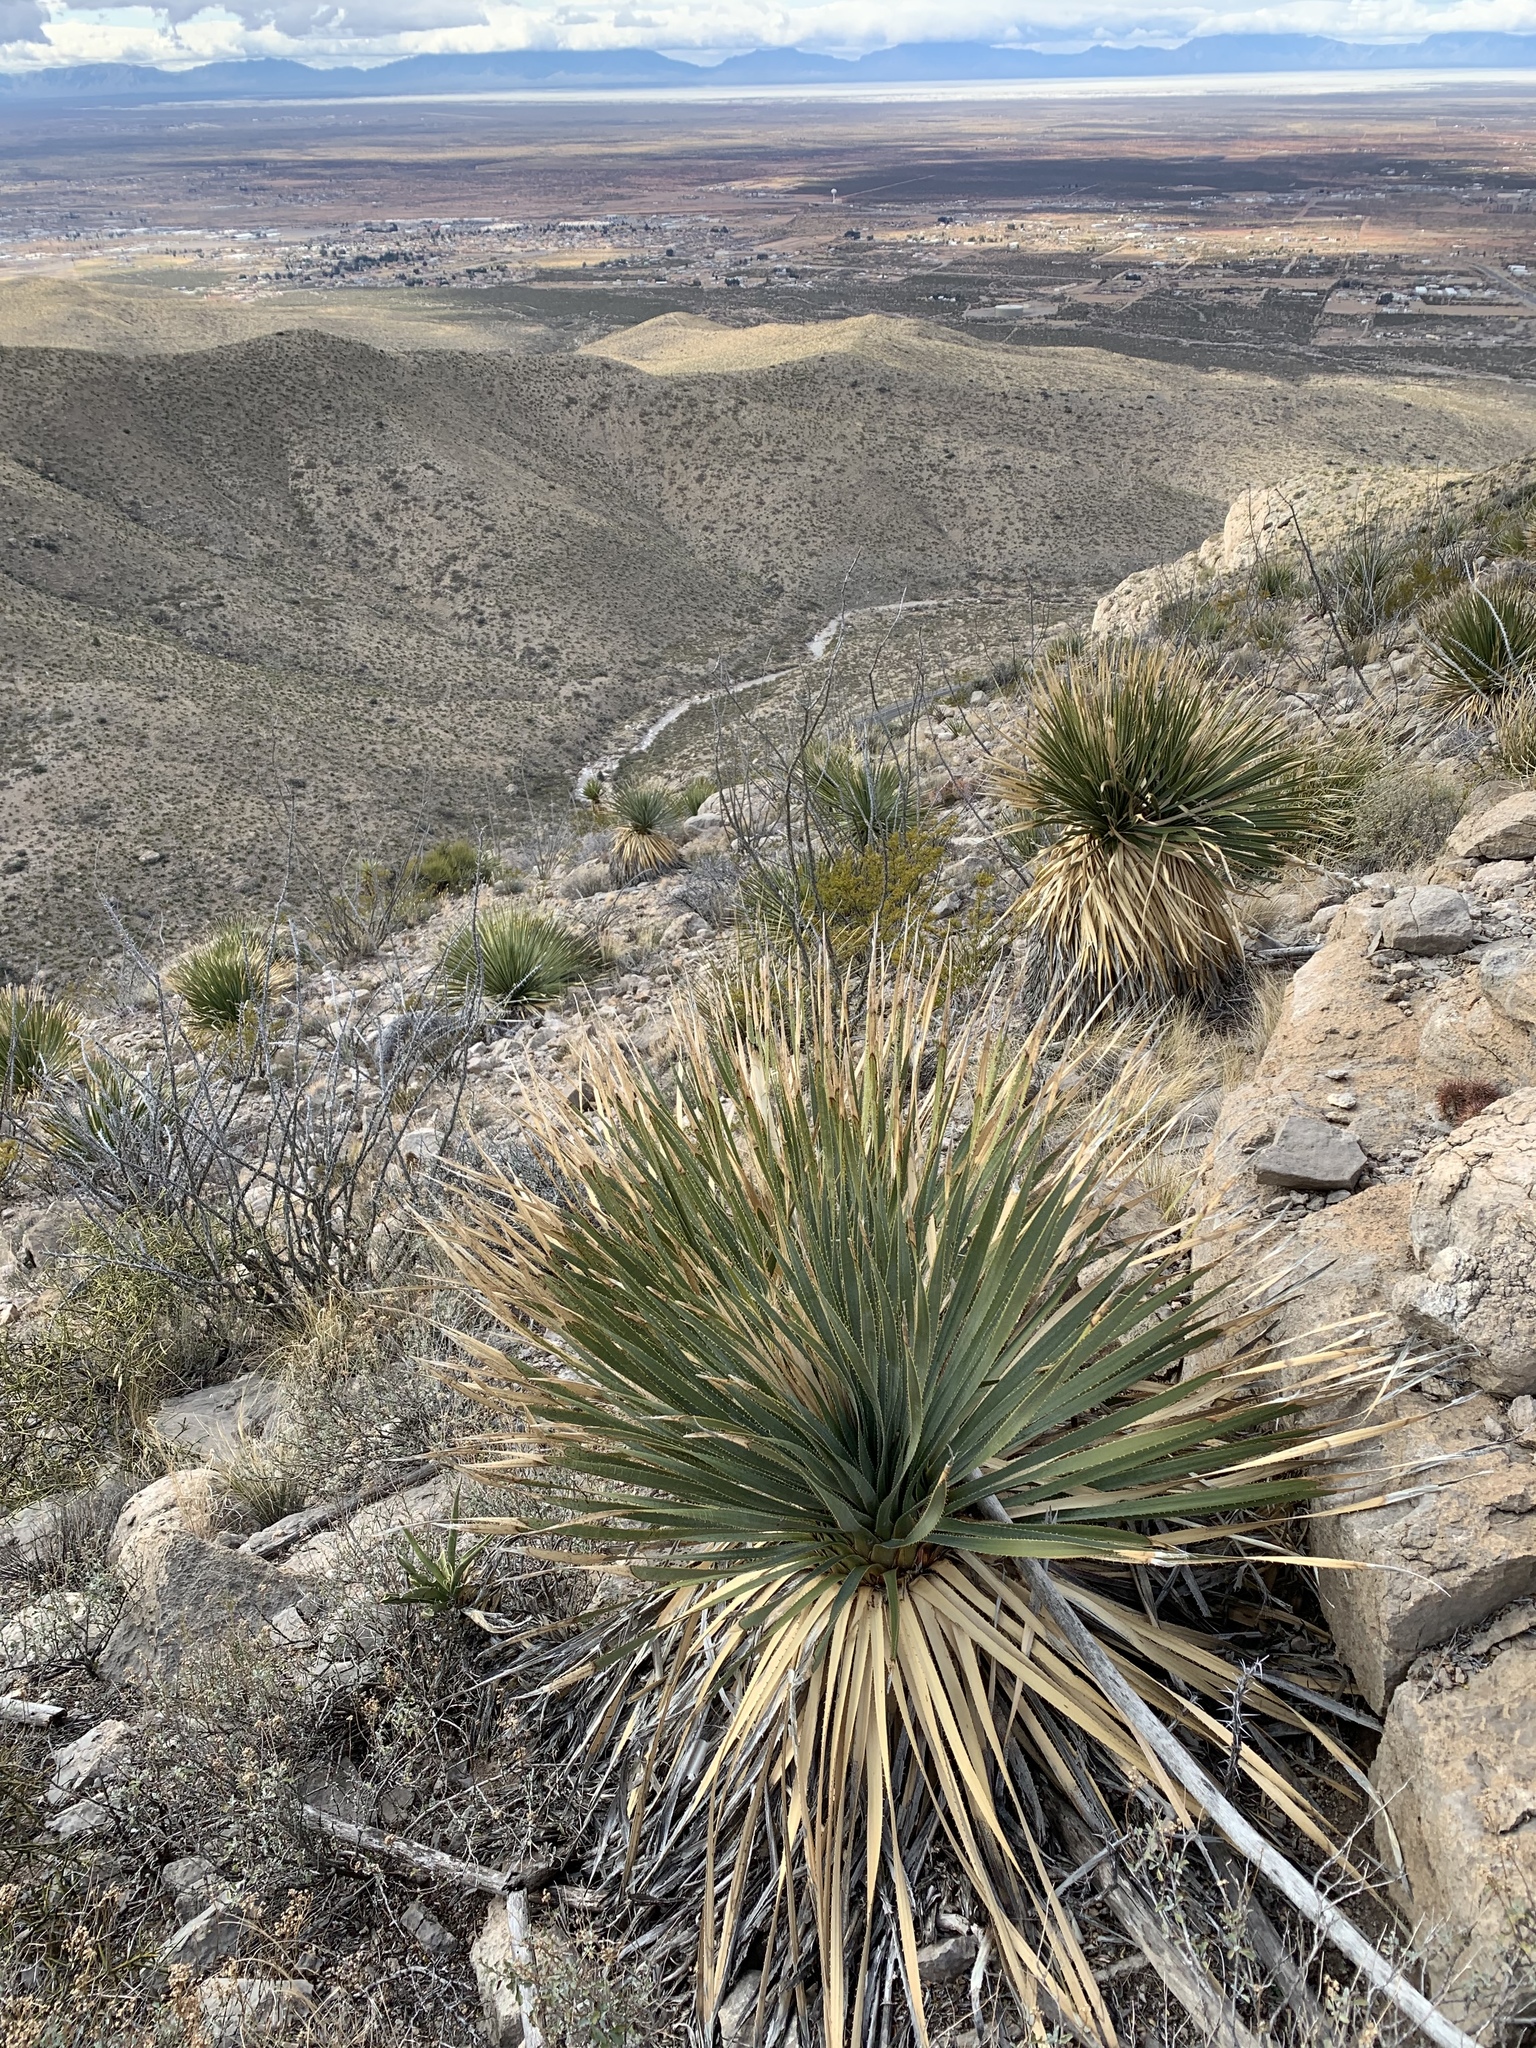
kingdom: Plantae
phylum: Tracheophyta
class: Liliopsida
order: Asparagales
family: Asparagaceae
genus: Dasylirion
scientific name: Dasylirion wheeleri
